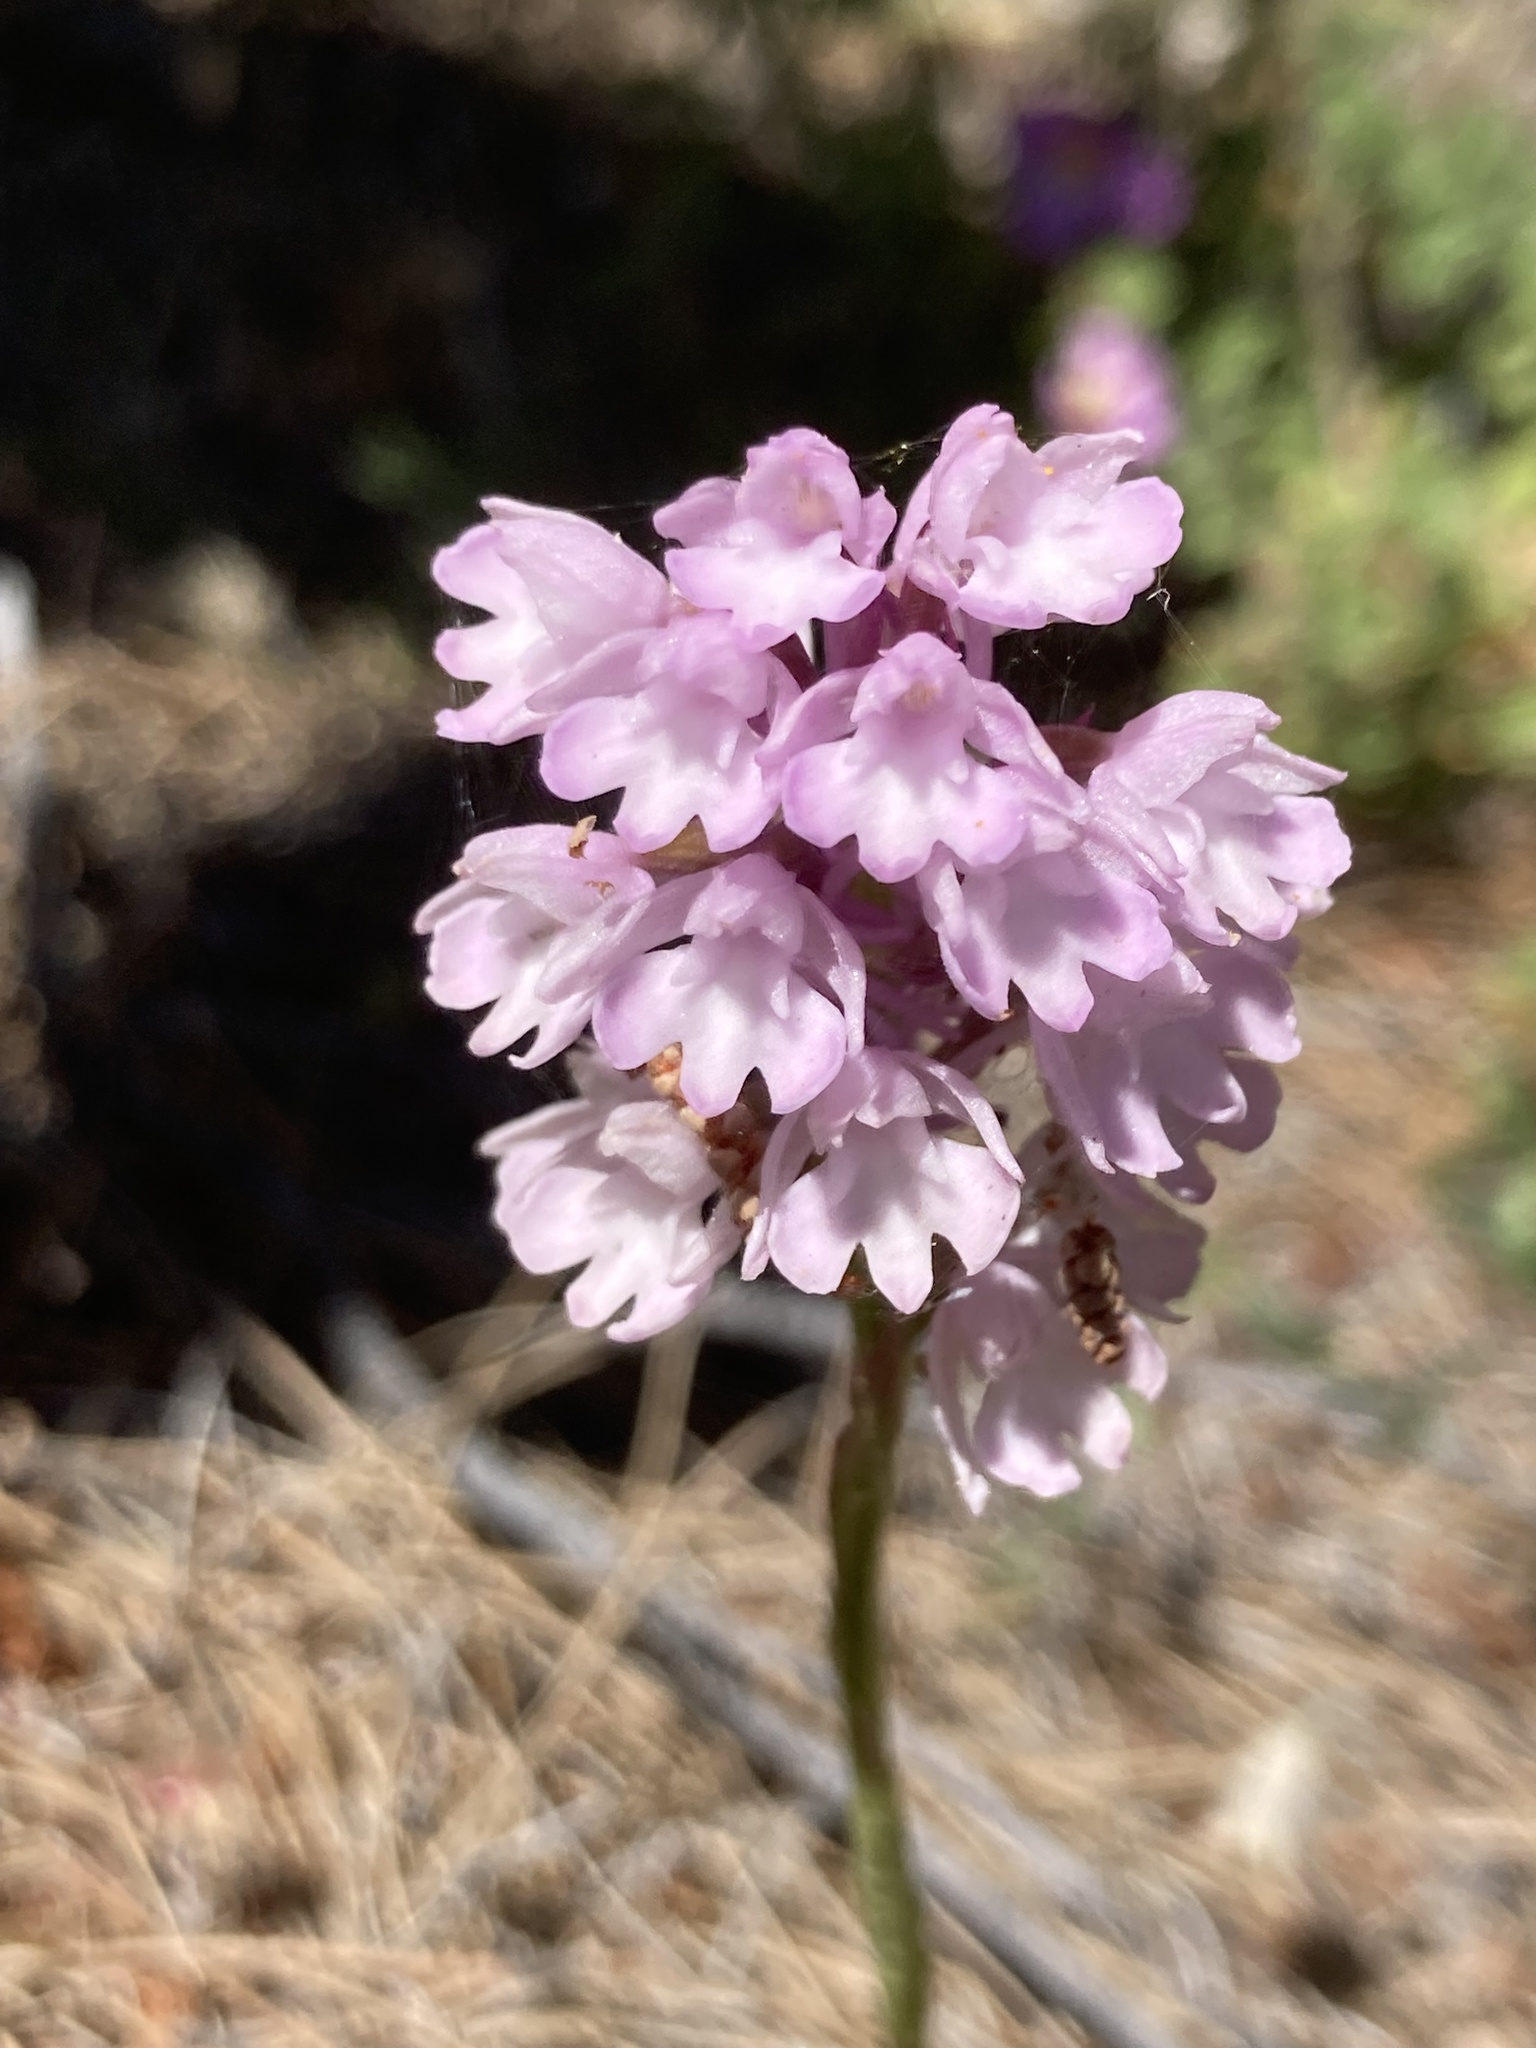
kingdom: Plantae
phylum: Tracheophyta
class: Liliopsida
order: Asparagales
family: Orchidaceae
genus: Anacamptis
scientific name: Anacamptis pyramidalis
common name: Pyramidal orchid
